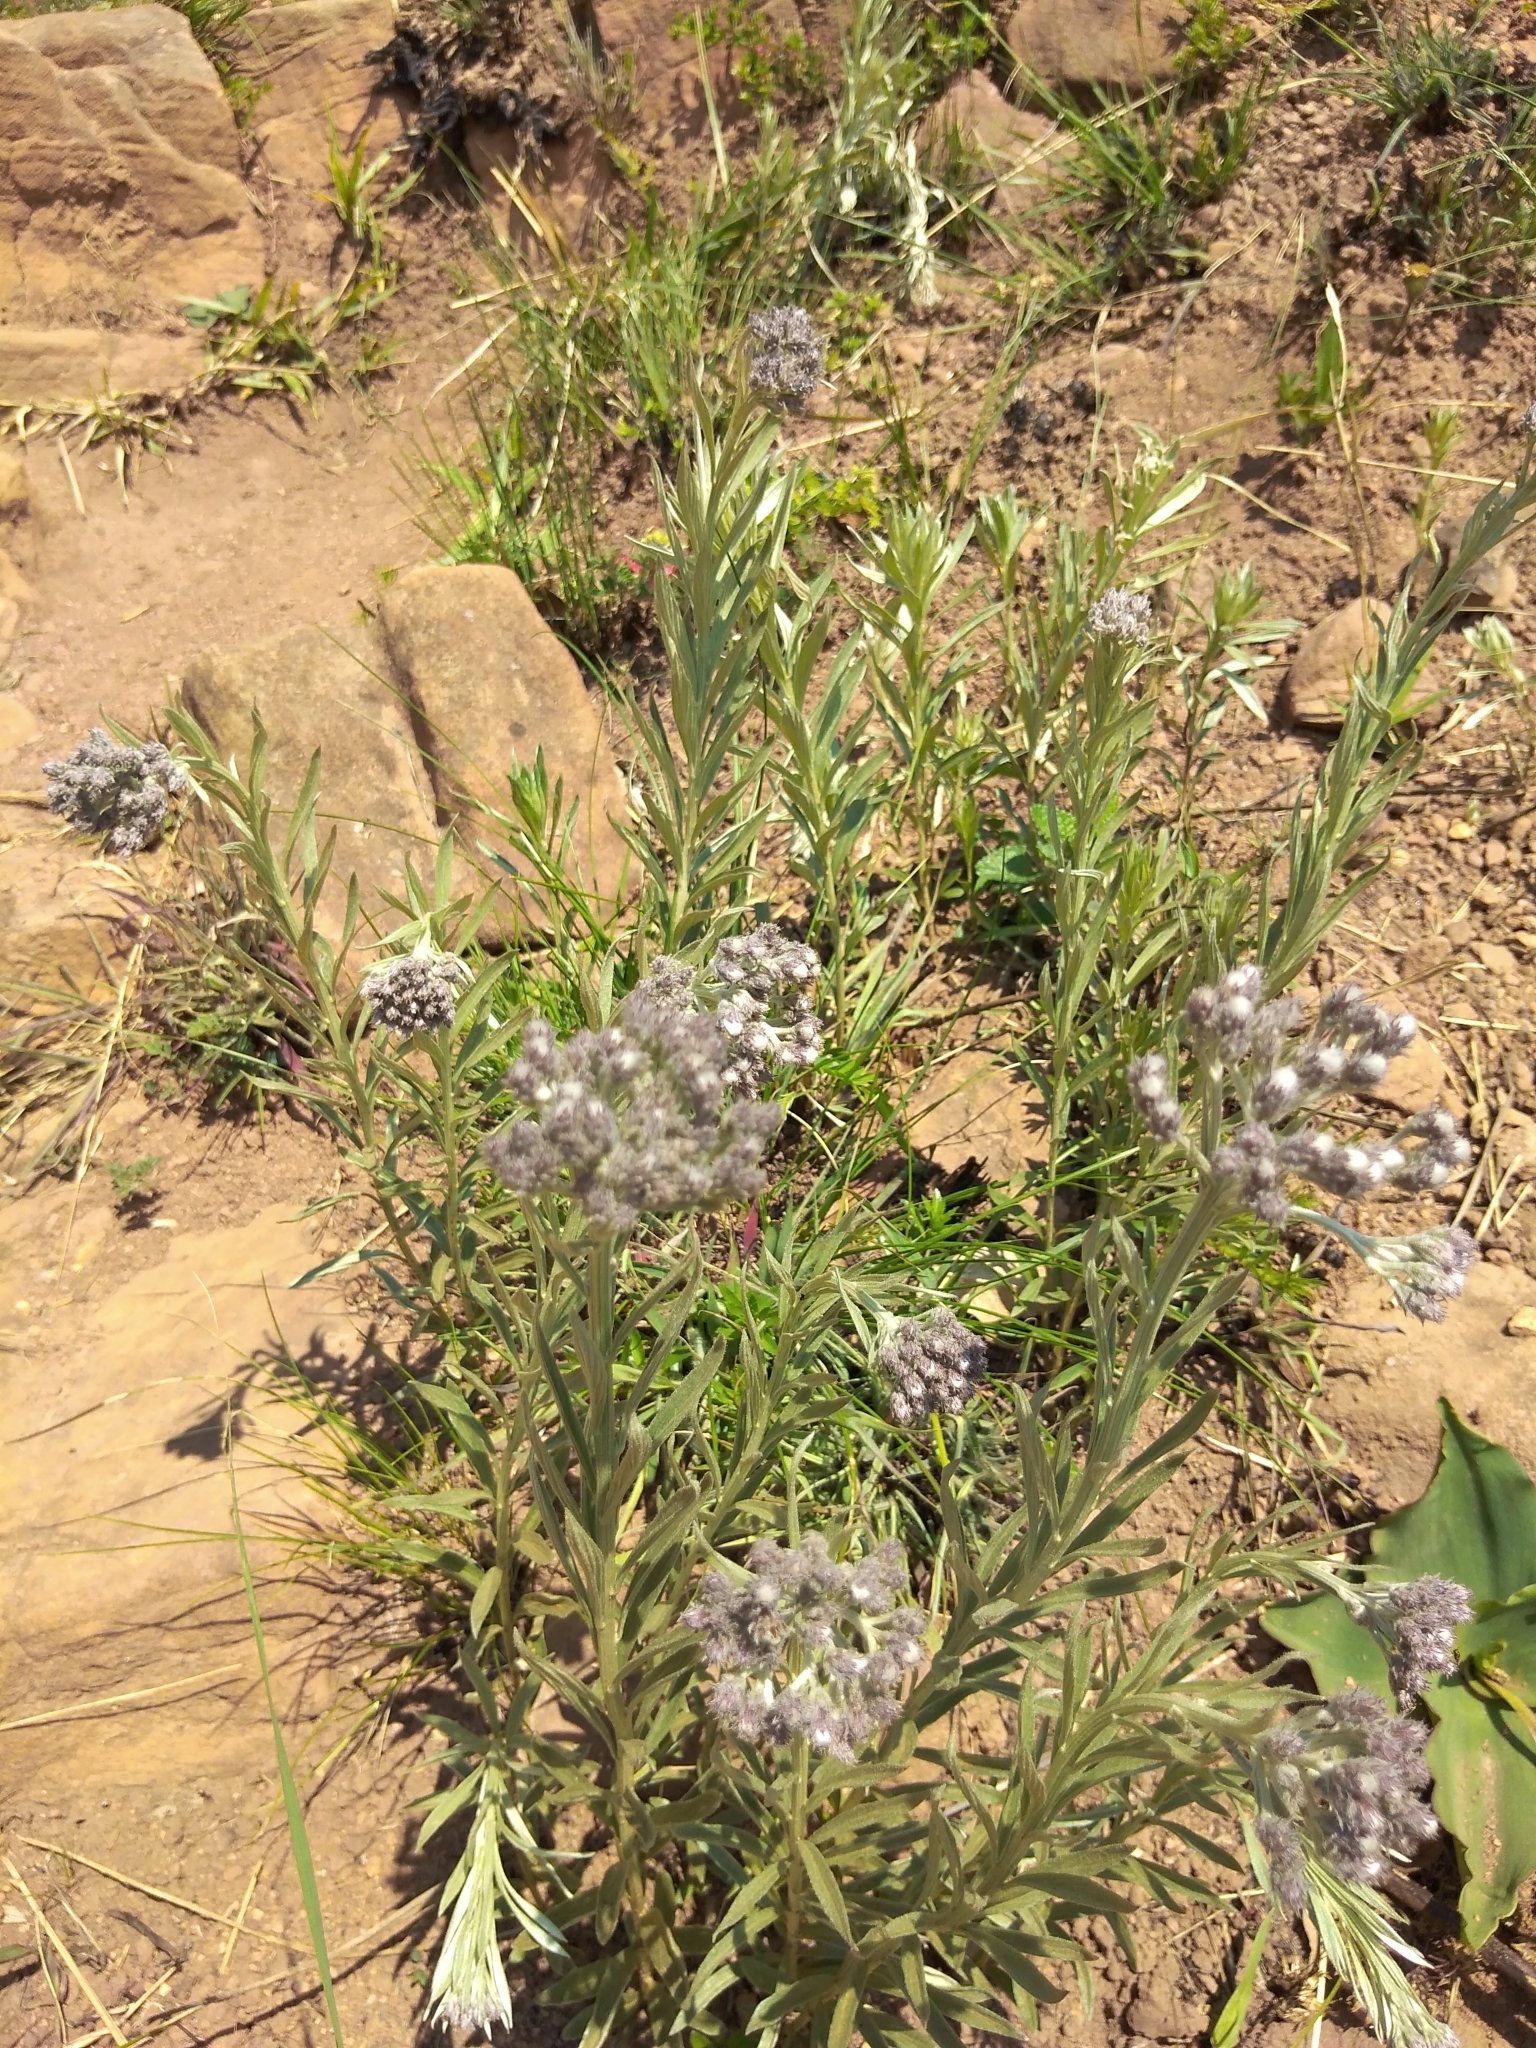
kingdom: Plantae
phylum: Tracheophyta
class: Magnoliopsida
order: Asterales
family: Asteraceae
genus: Hilliardiella
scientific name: Hilliardiella aristata
